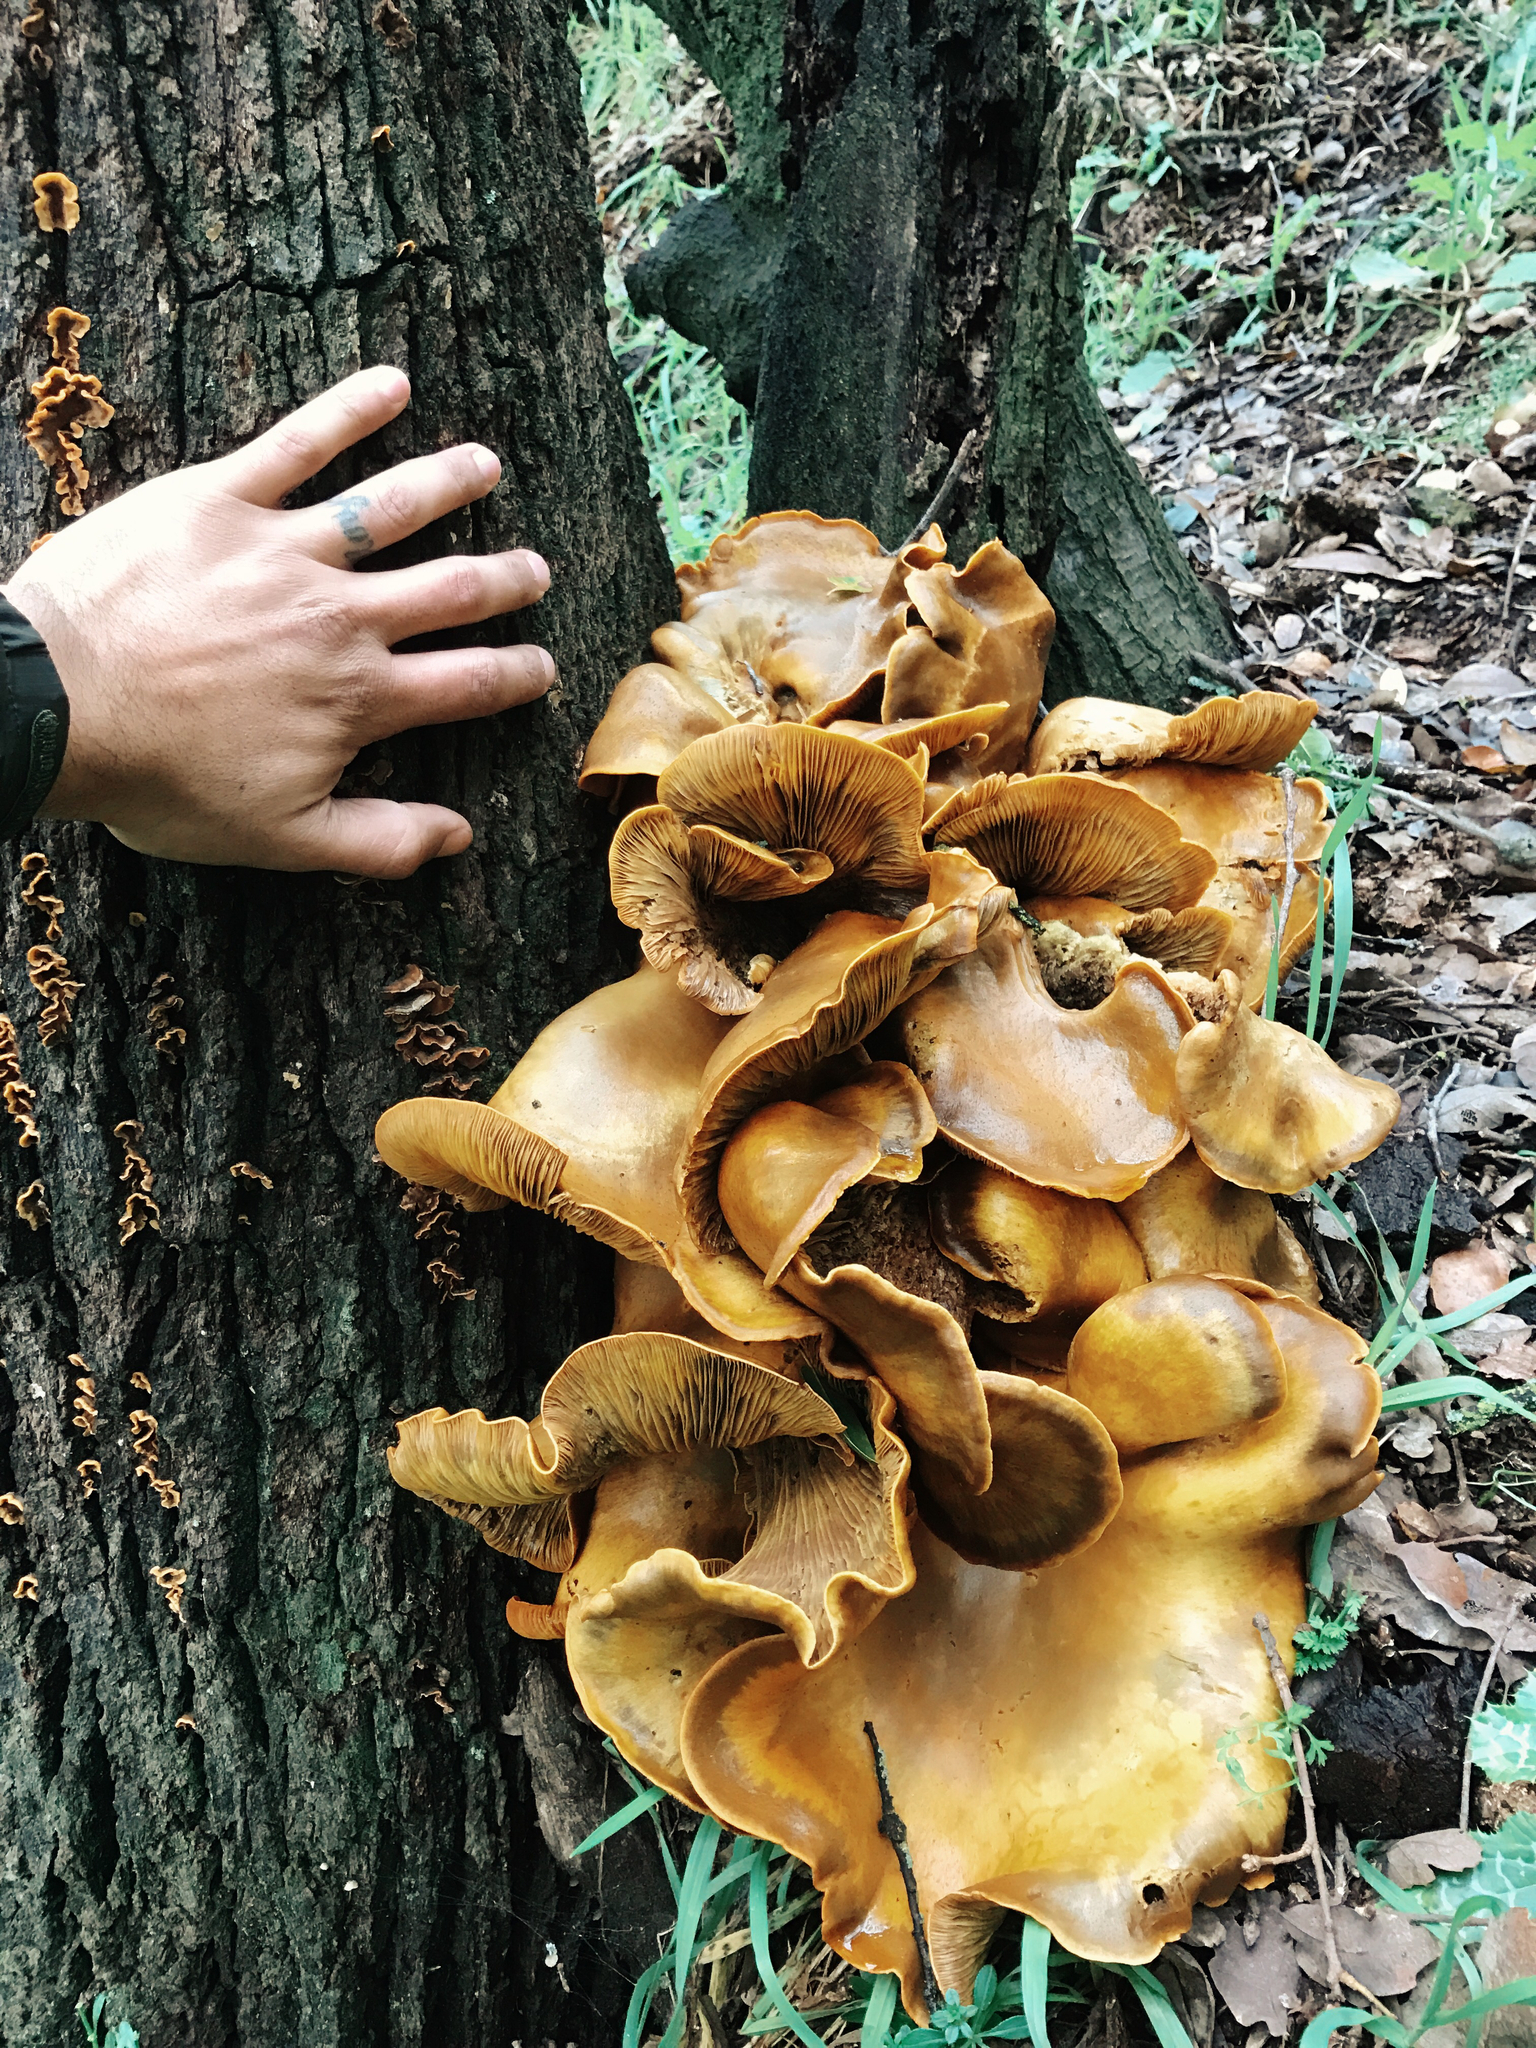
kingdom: Fungi
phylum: Basidiomycota
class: Agaricomycetes
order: Agaricales
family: Omphalotaceae
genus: Omphalotus
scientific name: Omphalotus olivascens
